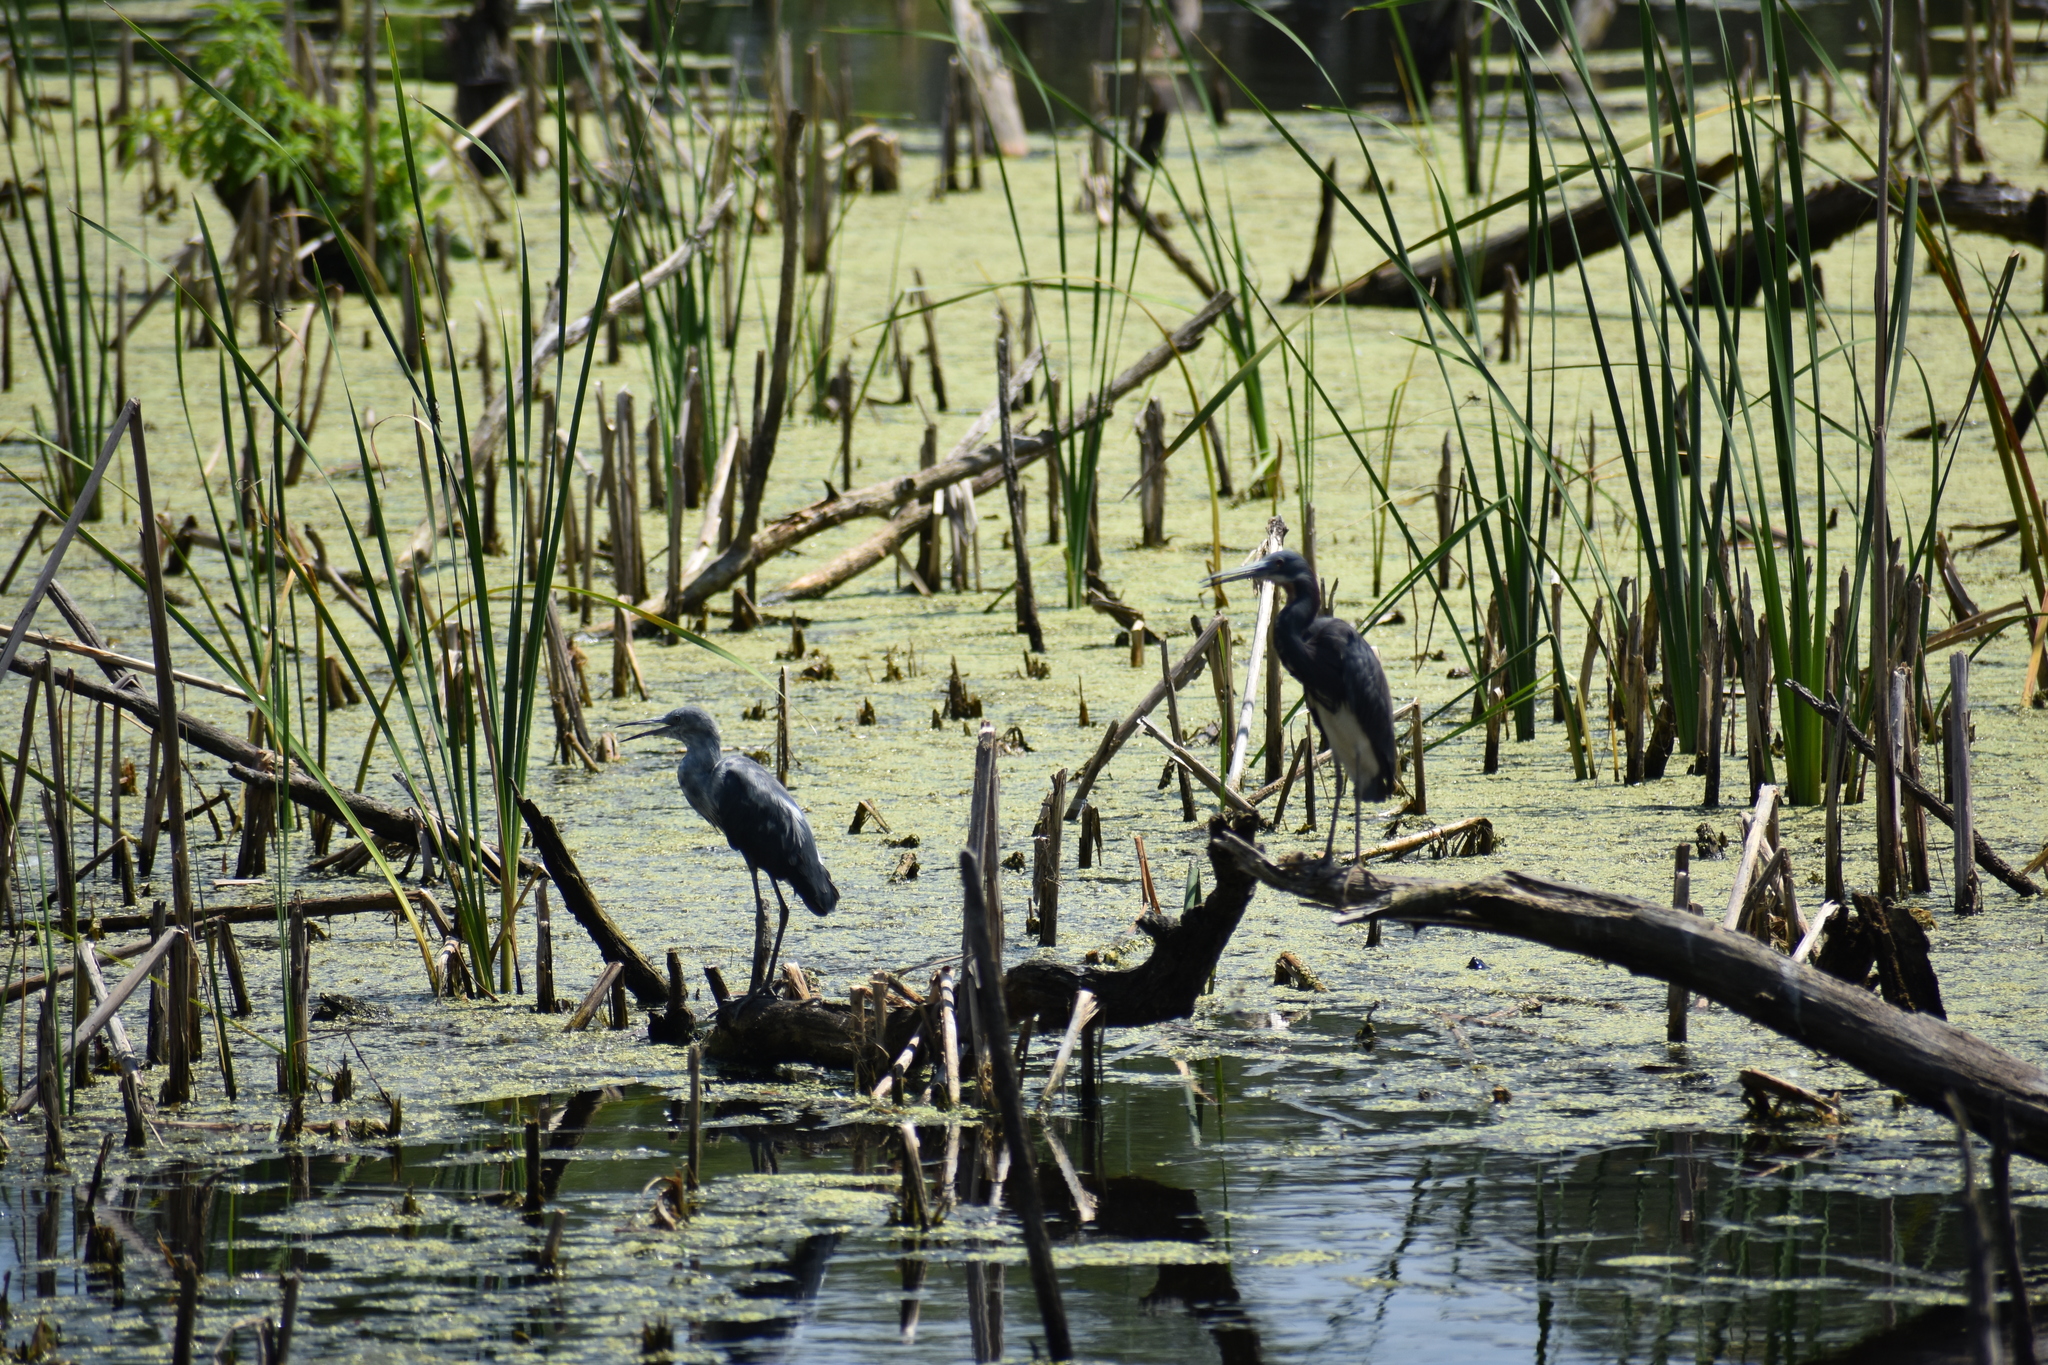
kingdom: Animalia
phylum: Chordata
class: Aves
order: Pelecaniformes
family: Ardeidae
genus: Egretta
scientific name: Egretta tricolor
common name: Tricolored heron
